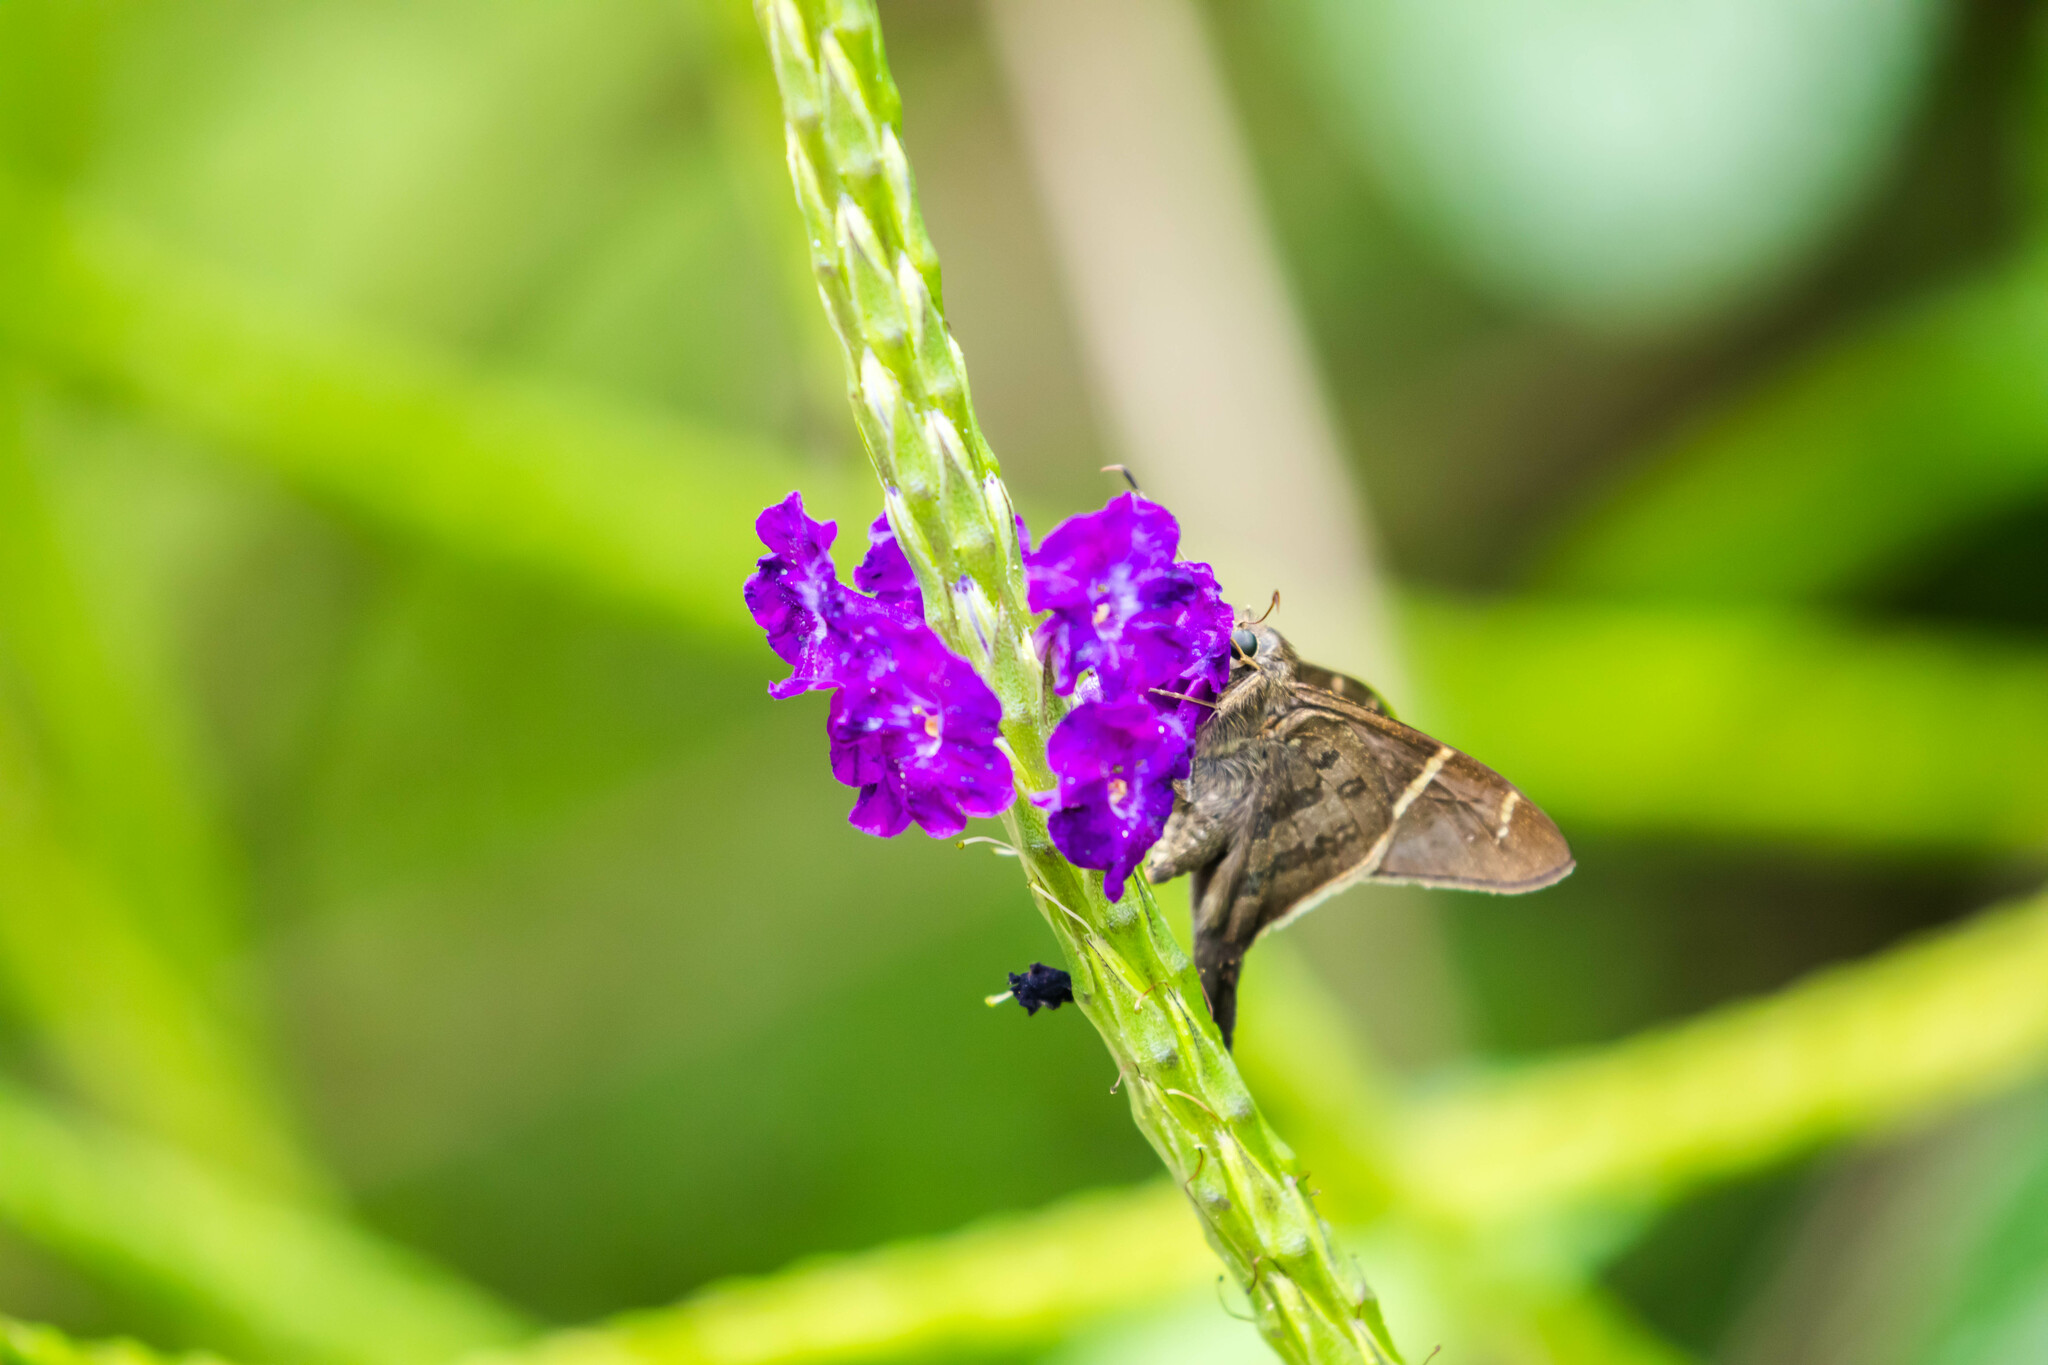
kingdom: Animalia
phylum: Arthropoda
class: Insecta
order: Lepidoptera
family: Hesperiidae
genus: Urbanus
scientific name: Urbanus tanna
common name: Tanna longtail
